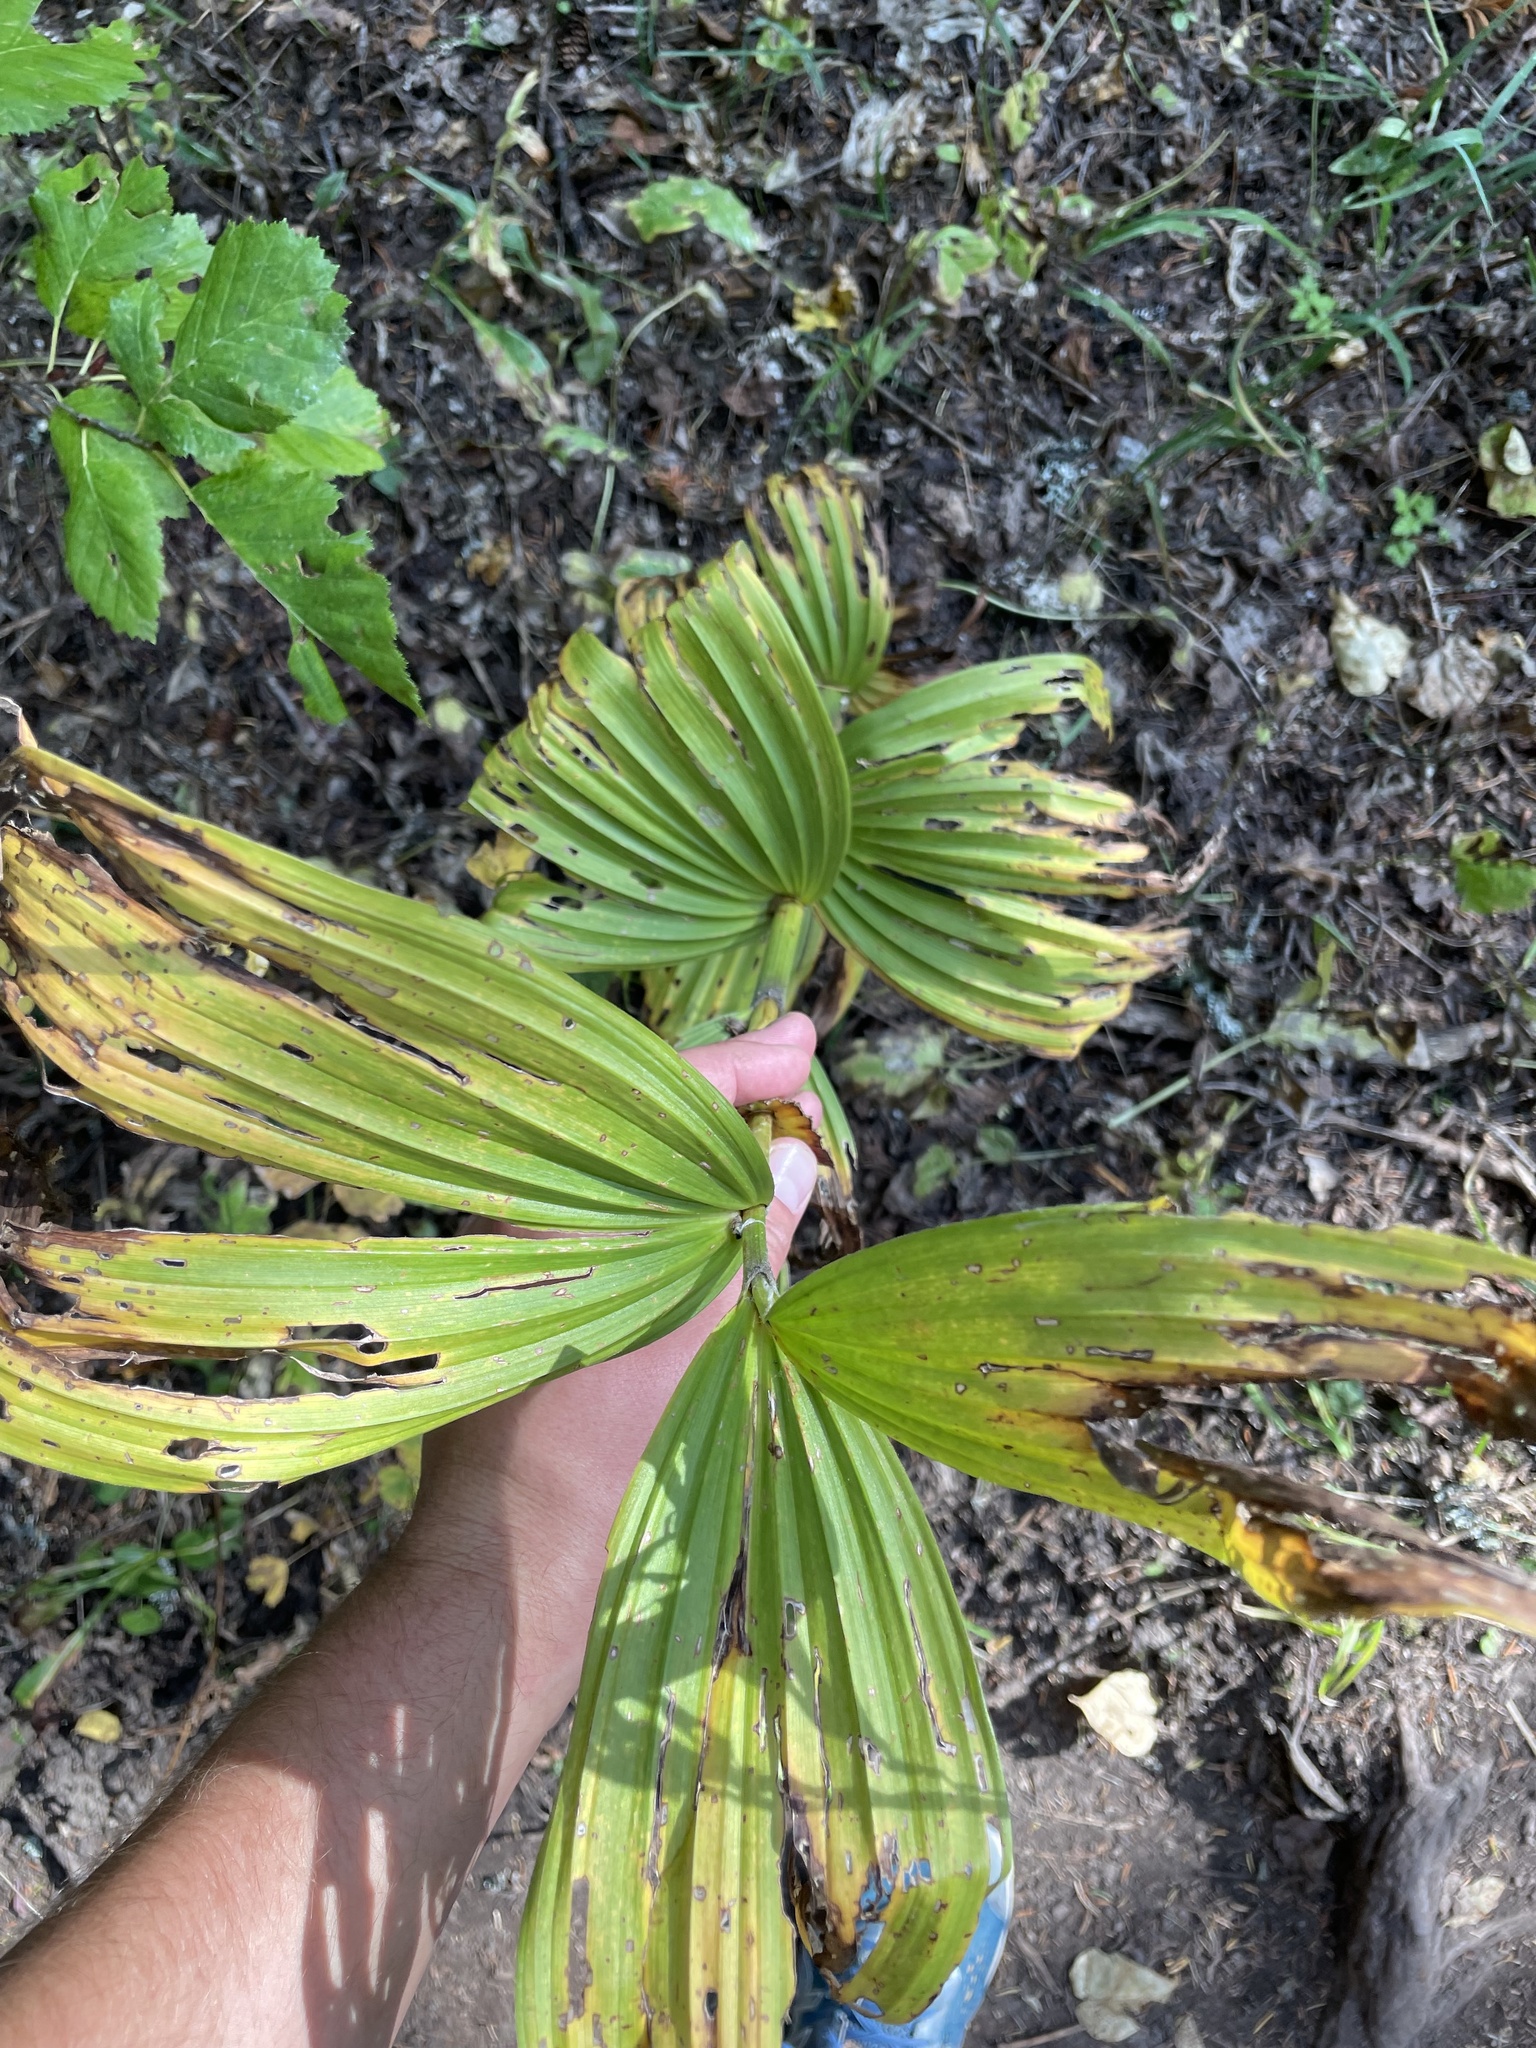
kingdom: Plantae
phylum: Tracheophyta
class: Liliopsida
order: Liliales
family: Melanthiaceae
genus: Veratrum
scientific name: Veratrum viride
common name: American false hellebore
